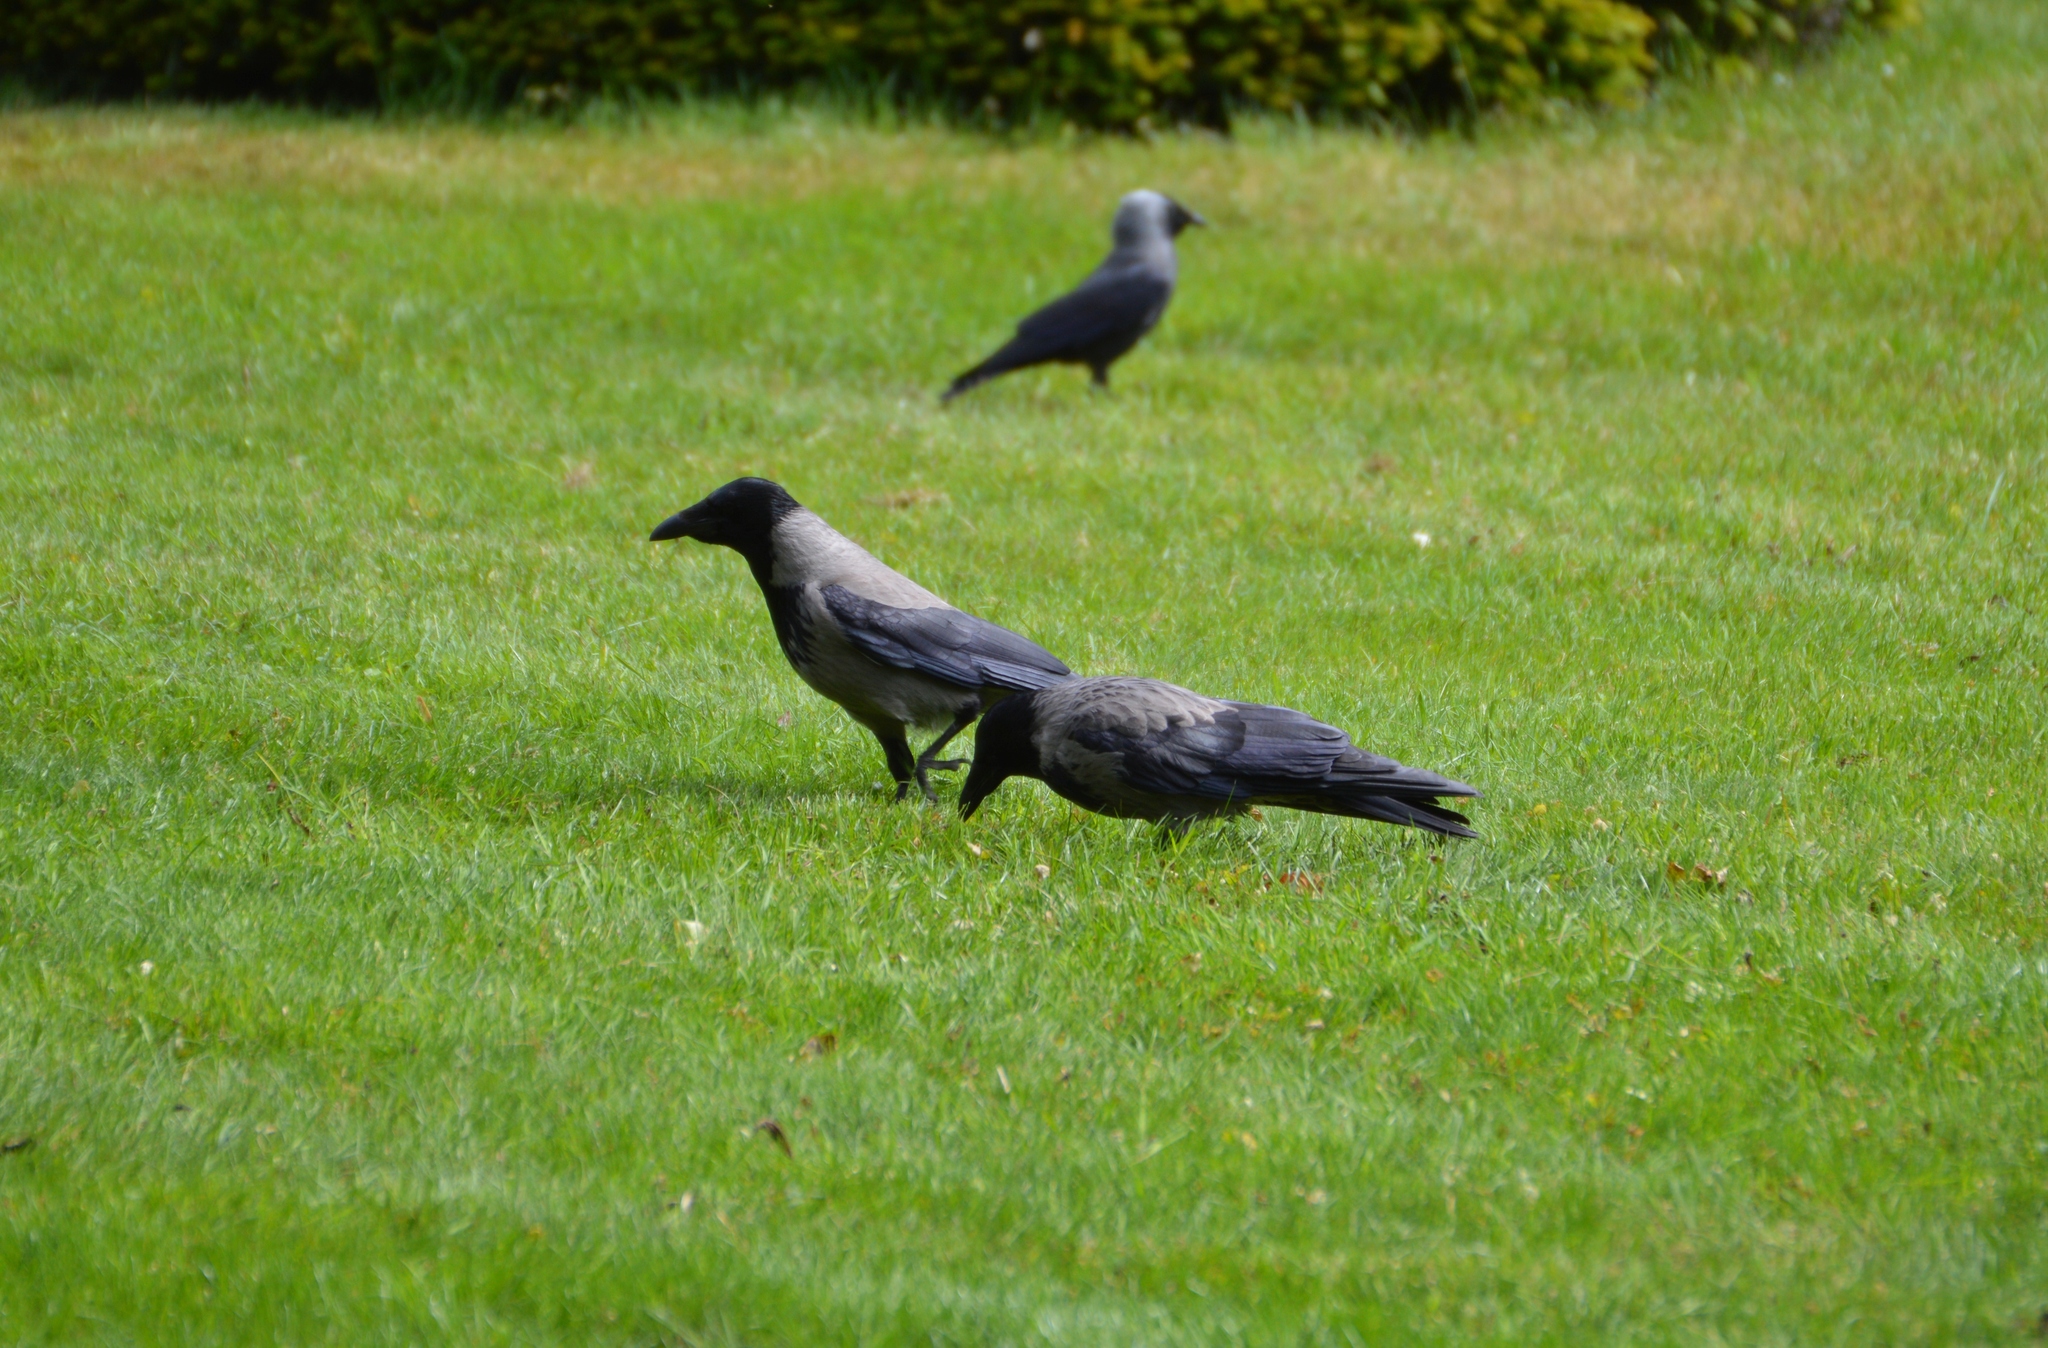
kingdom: Animalia
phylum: Chordata
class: Aves
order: Passeriformes
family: Corvidae
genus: Corvus
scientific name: Corvus
